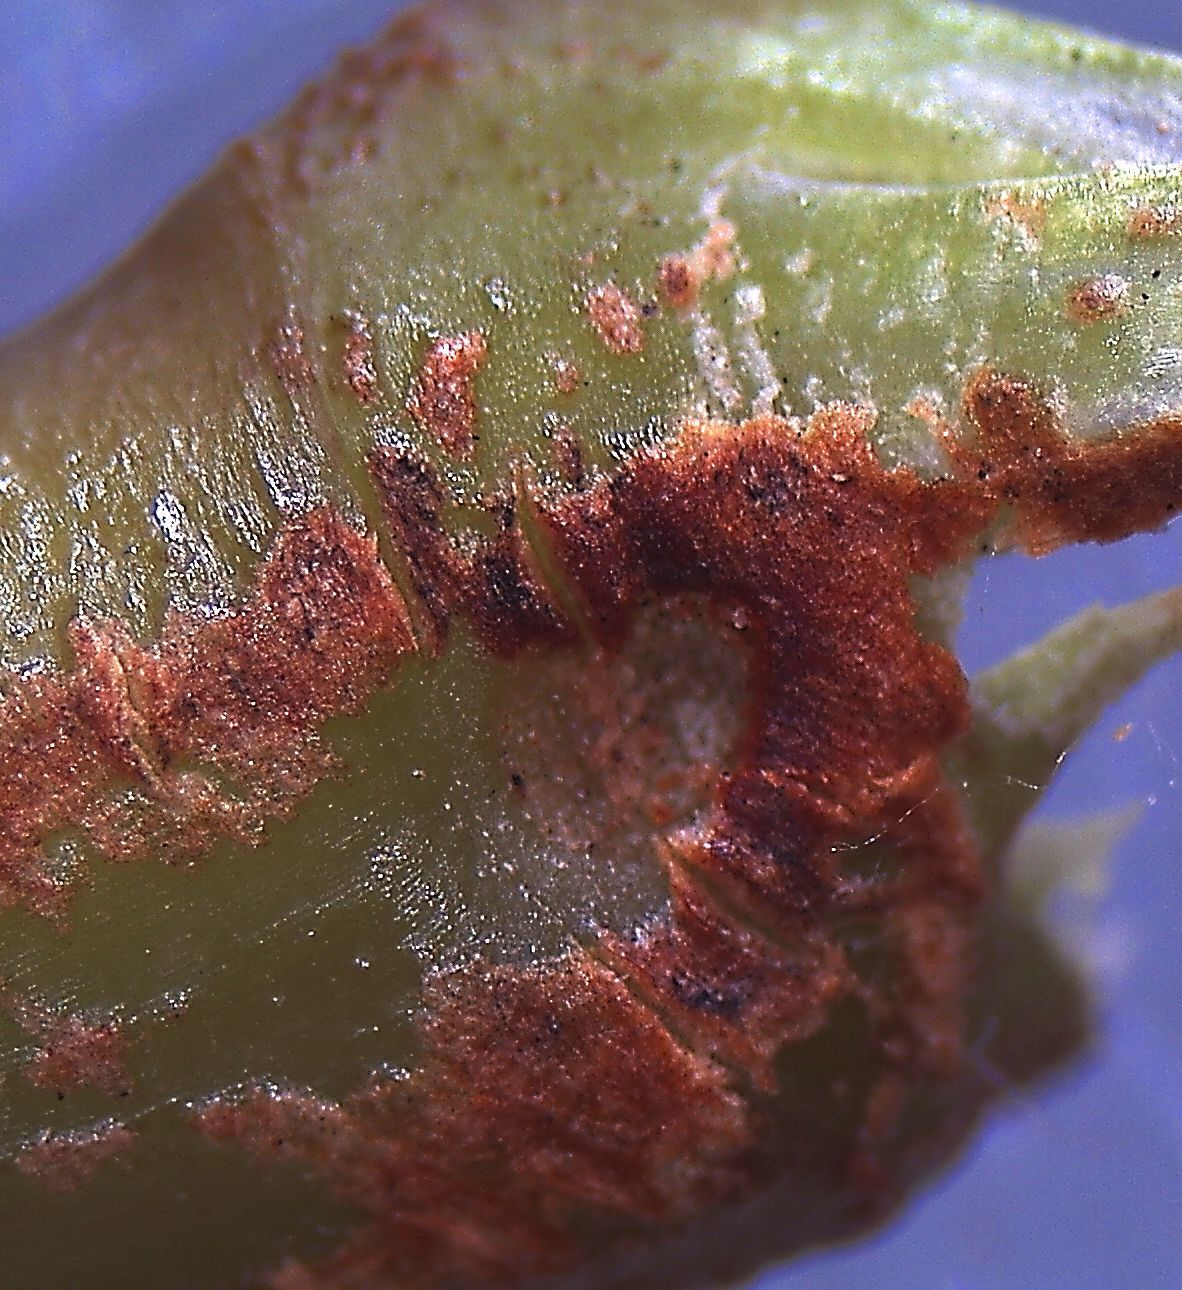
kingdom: Plantae
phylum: Tracheophyta
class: Magnoliopsida
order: Caryophyllales
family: Polygonaceae
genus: Reynoutria
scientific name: Reynoutria japonica
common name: Japanese knotweed
